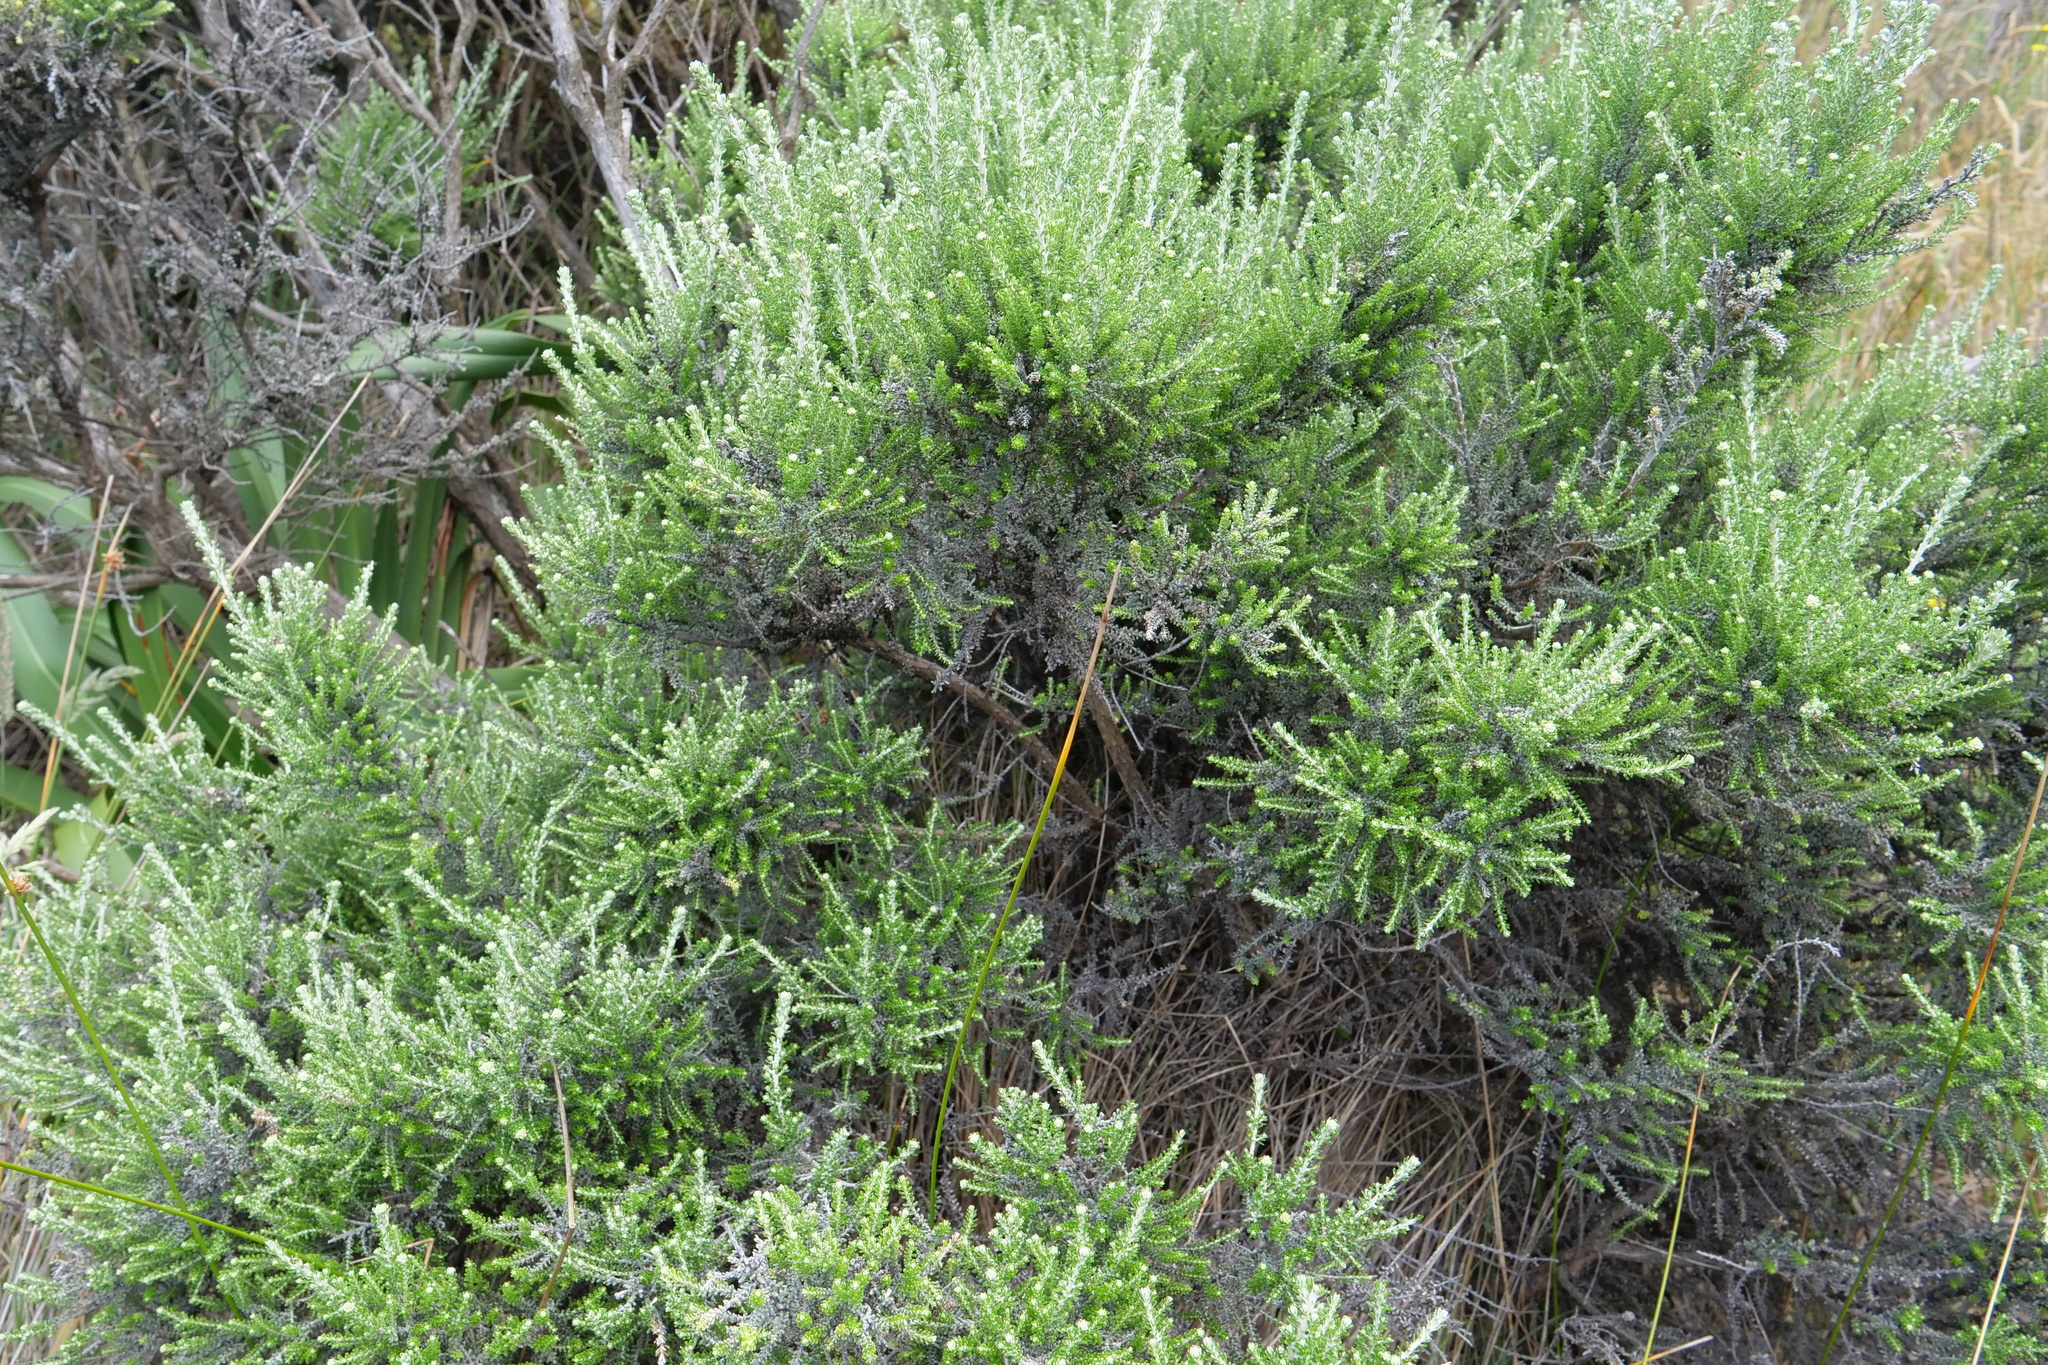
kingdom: Plantae
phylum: Tracheophyta
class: Magnoliopsida
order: Asterales
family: Asteraceae
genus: Ozothamnus
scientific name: Ozothamnus leptophyllus
